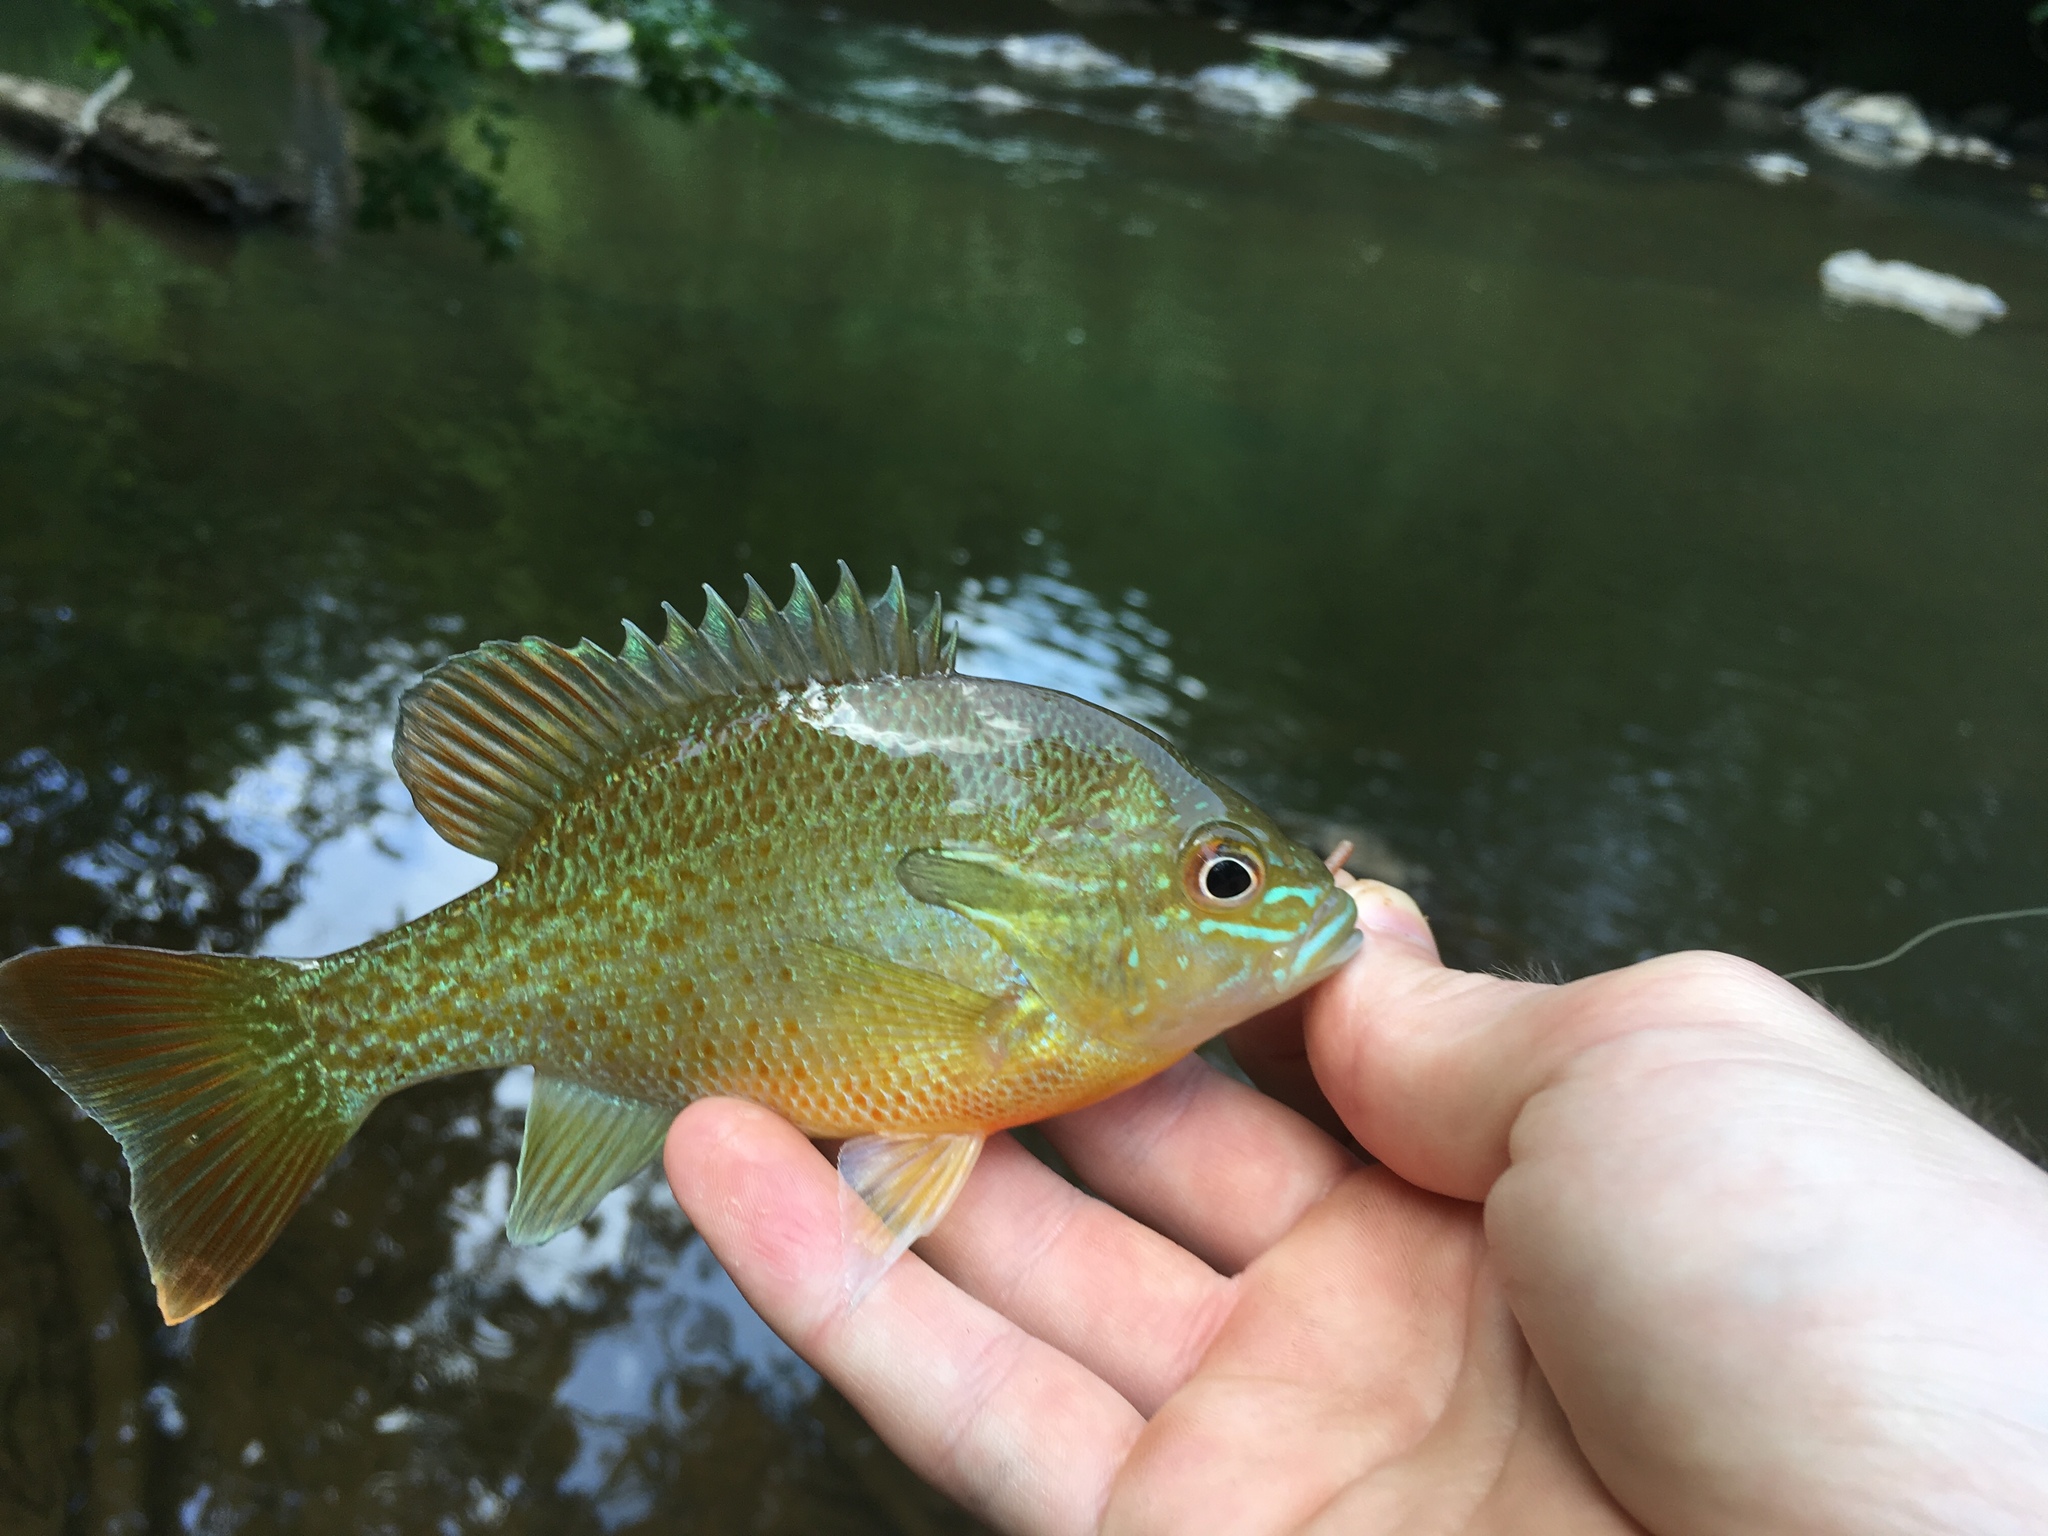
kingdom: Animalia
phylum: Chordata
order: Perciformes
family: Centrarchidae
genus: Lepomis
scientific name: Lepomis auritus
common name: Redbreast sunfish
